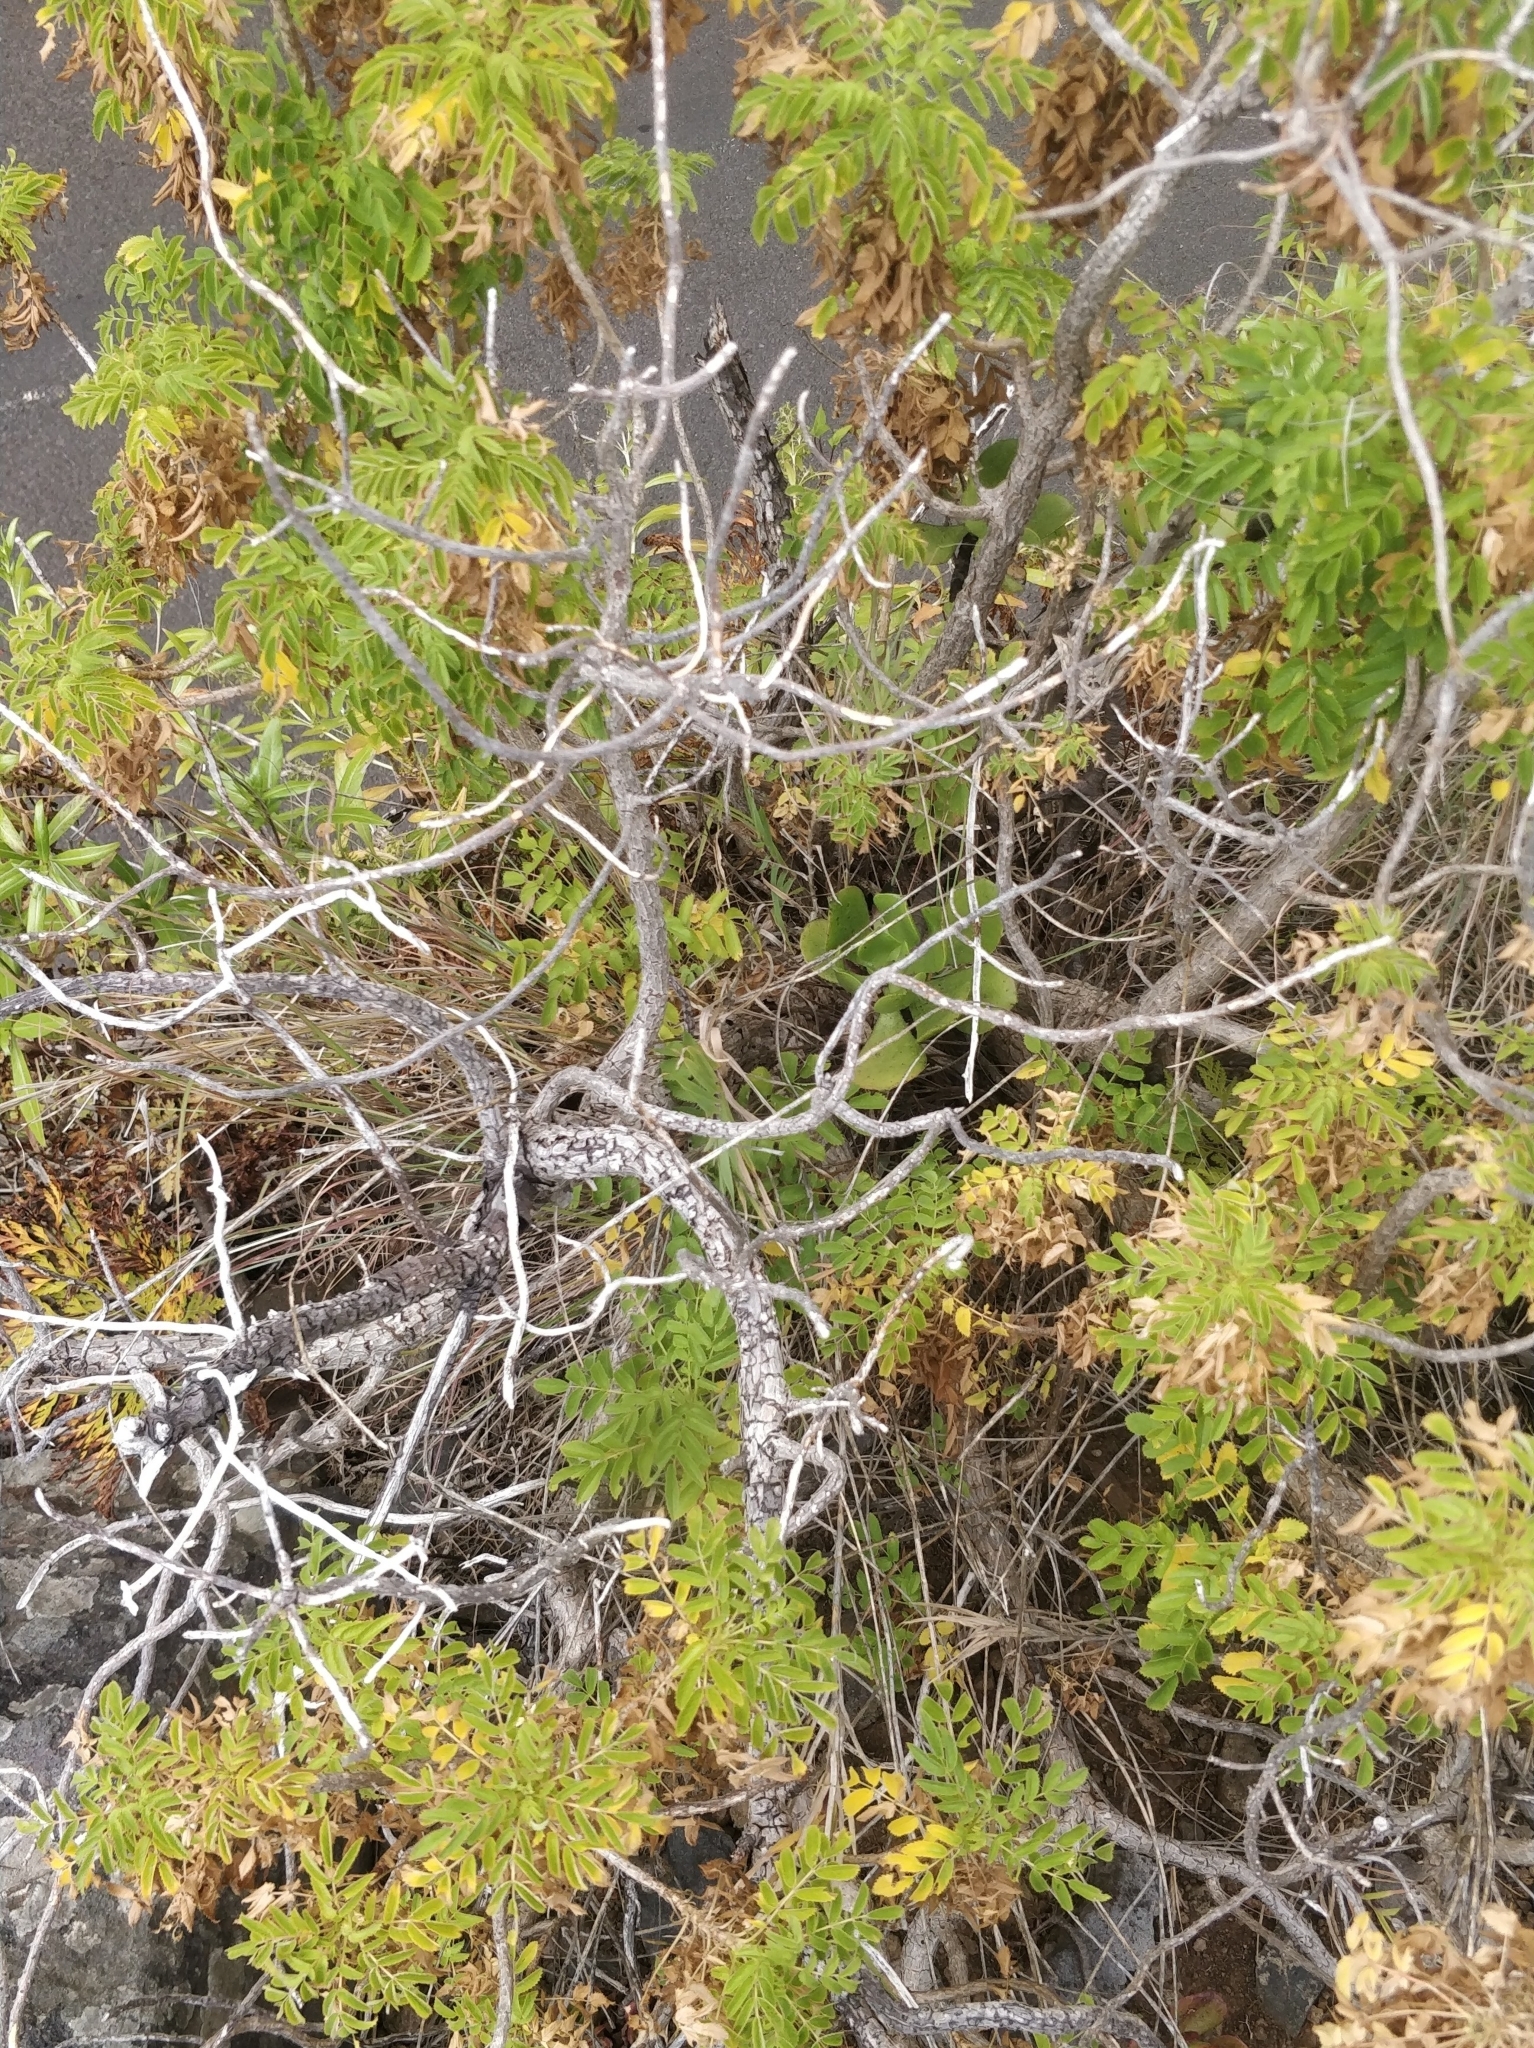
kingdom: Plantae
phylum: Tracheophyta
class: Magnoliopsida
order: Rosales
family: Rosaceae
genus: Marcetella
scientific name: Marcetella maderensis
